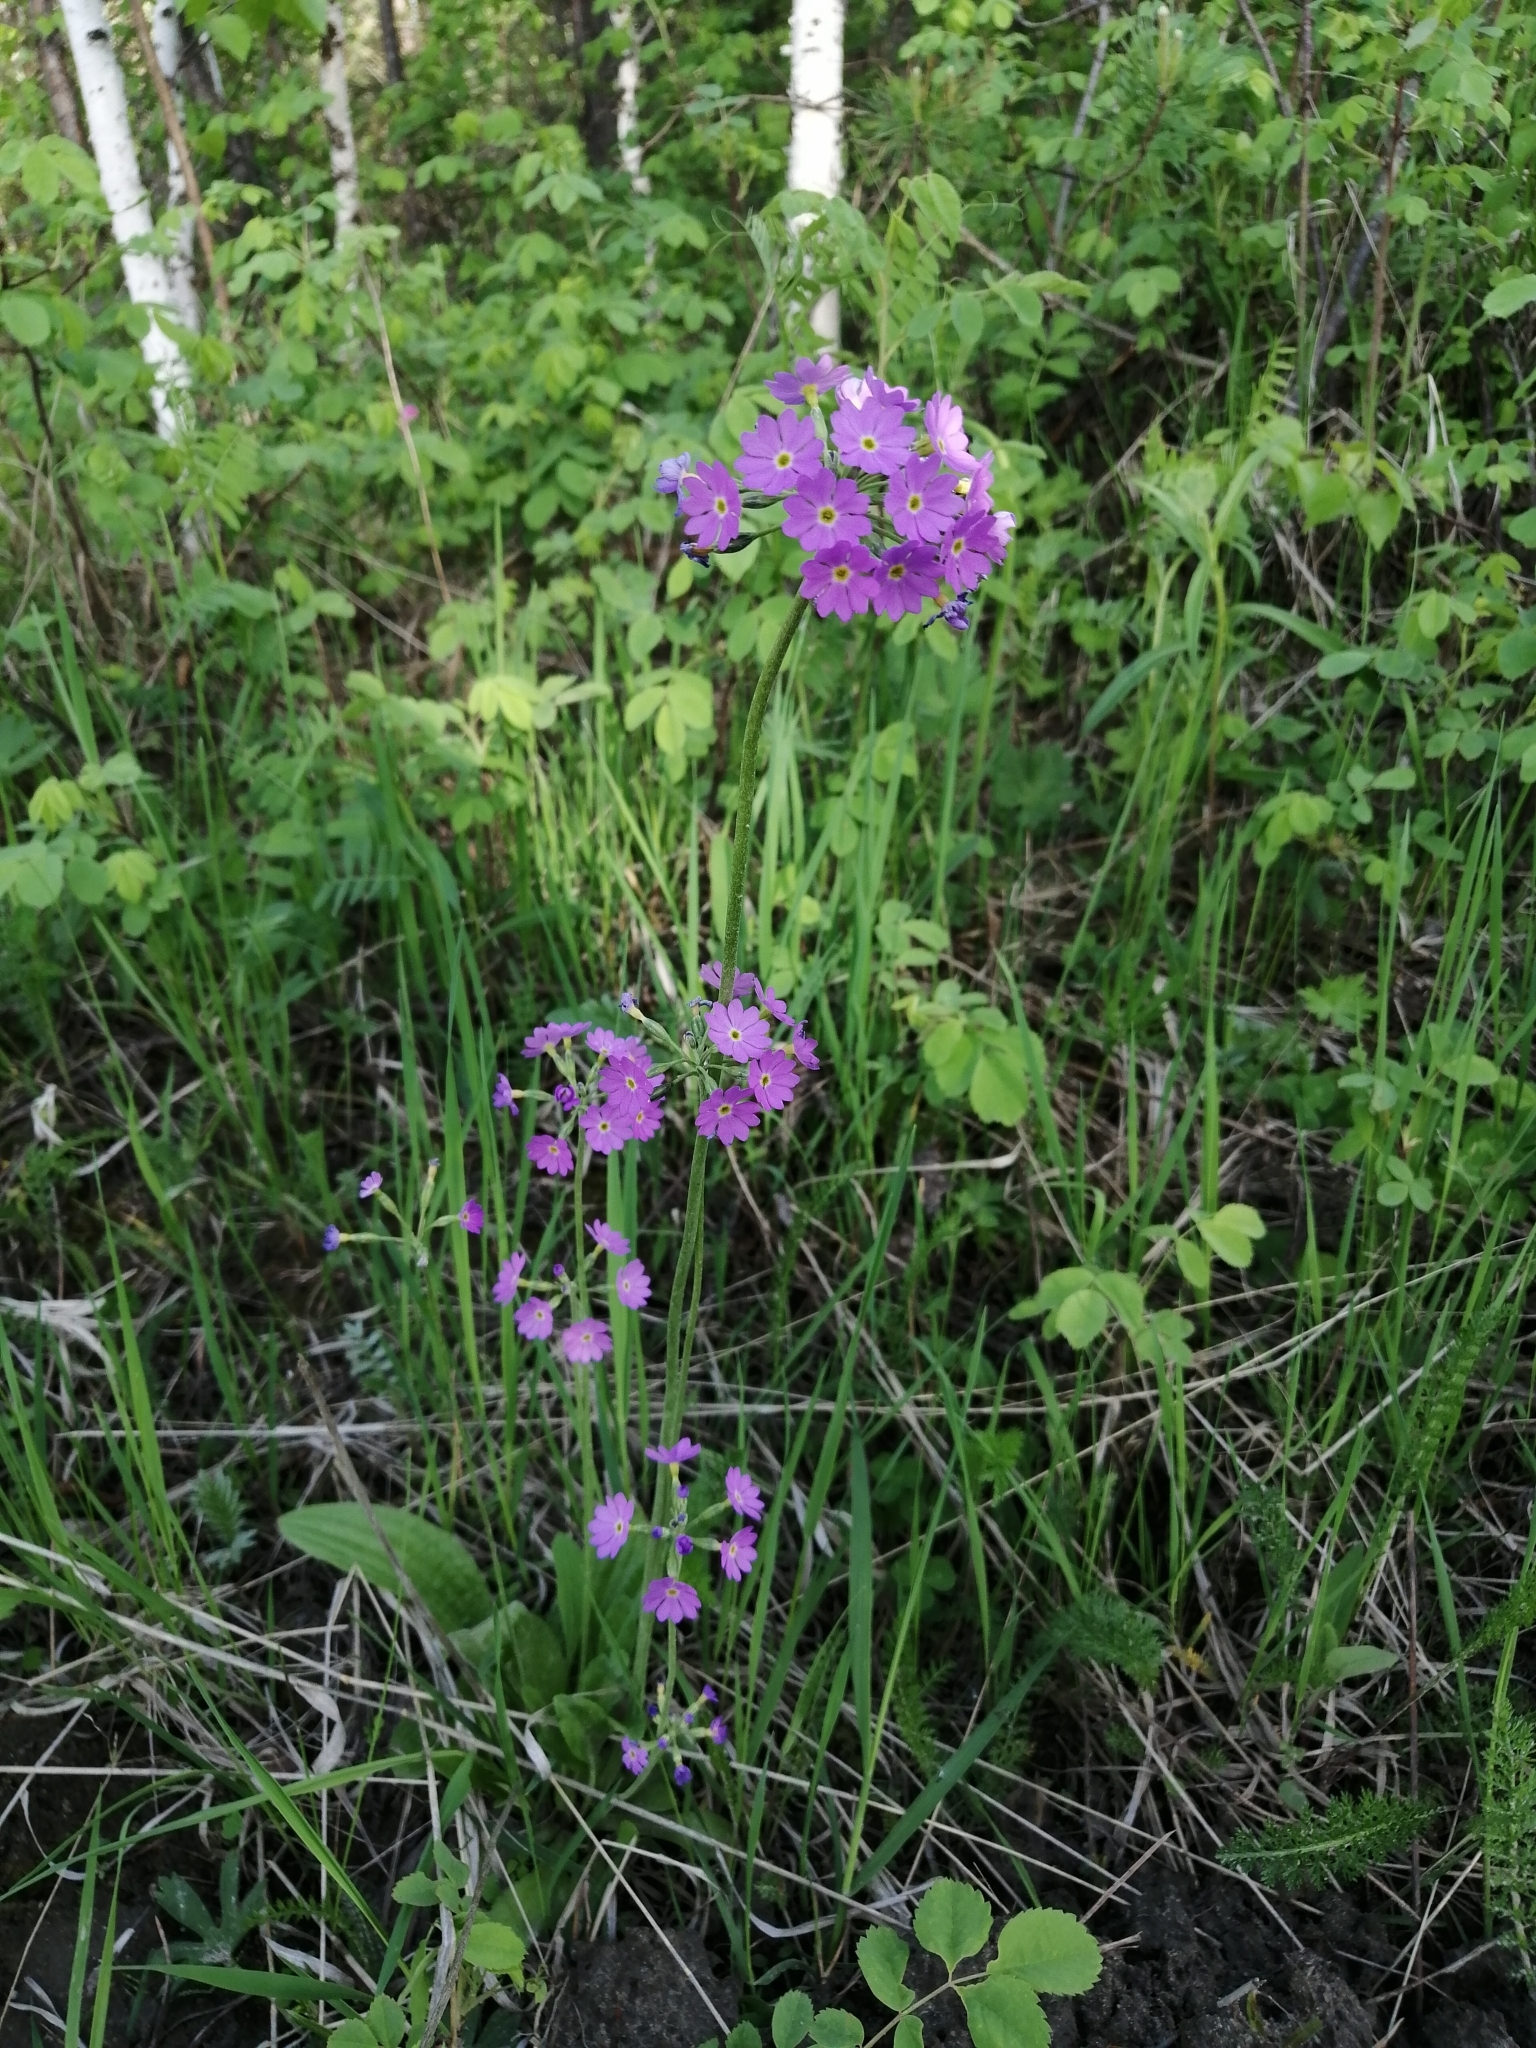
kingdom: Plantae
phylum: Tracheophyta
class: Magnoliopsida
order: Ericales
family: Primulaceae
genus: Primula
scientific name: Primula farinosa
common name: Bird's-eye primrose
